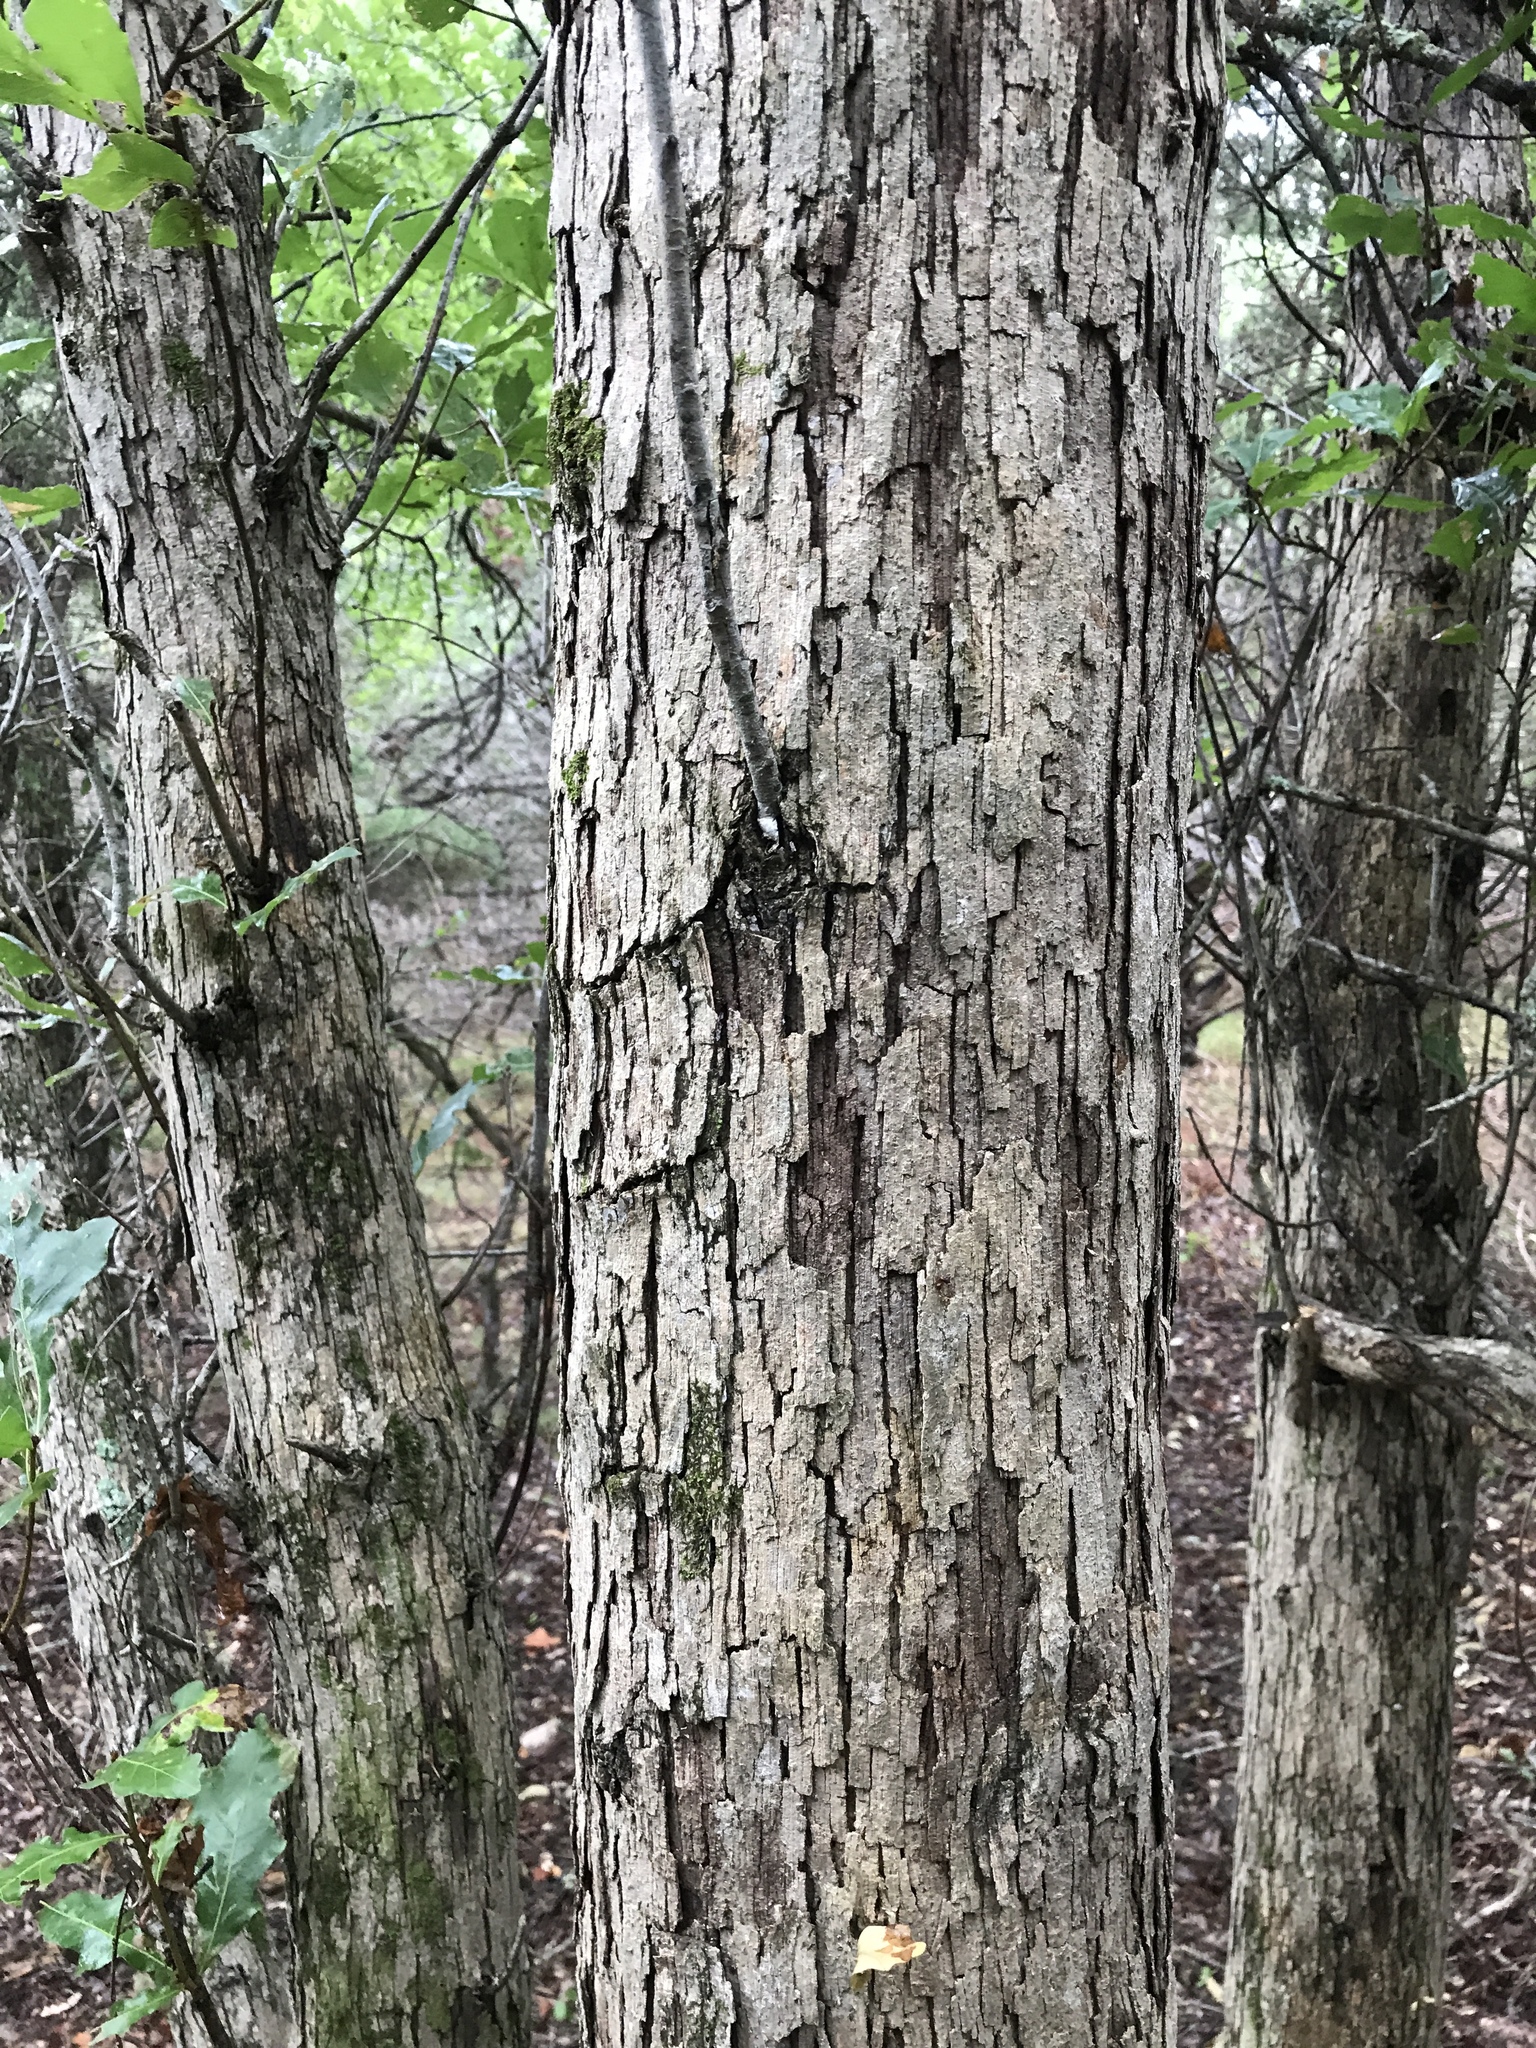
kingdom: Plantae
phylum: Tracheophyta
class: Magnoliopsida
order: Fagales
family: Fagaceae
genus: Quercus
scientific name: Quercus sinuata
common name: Durand oak
